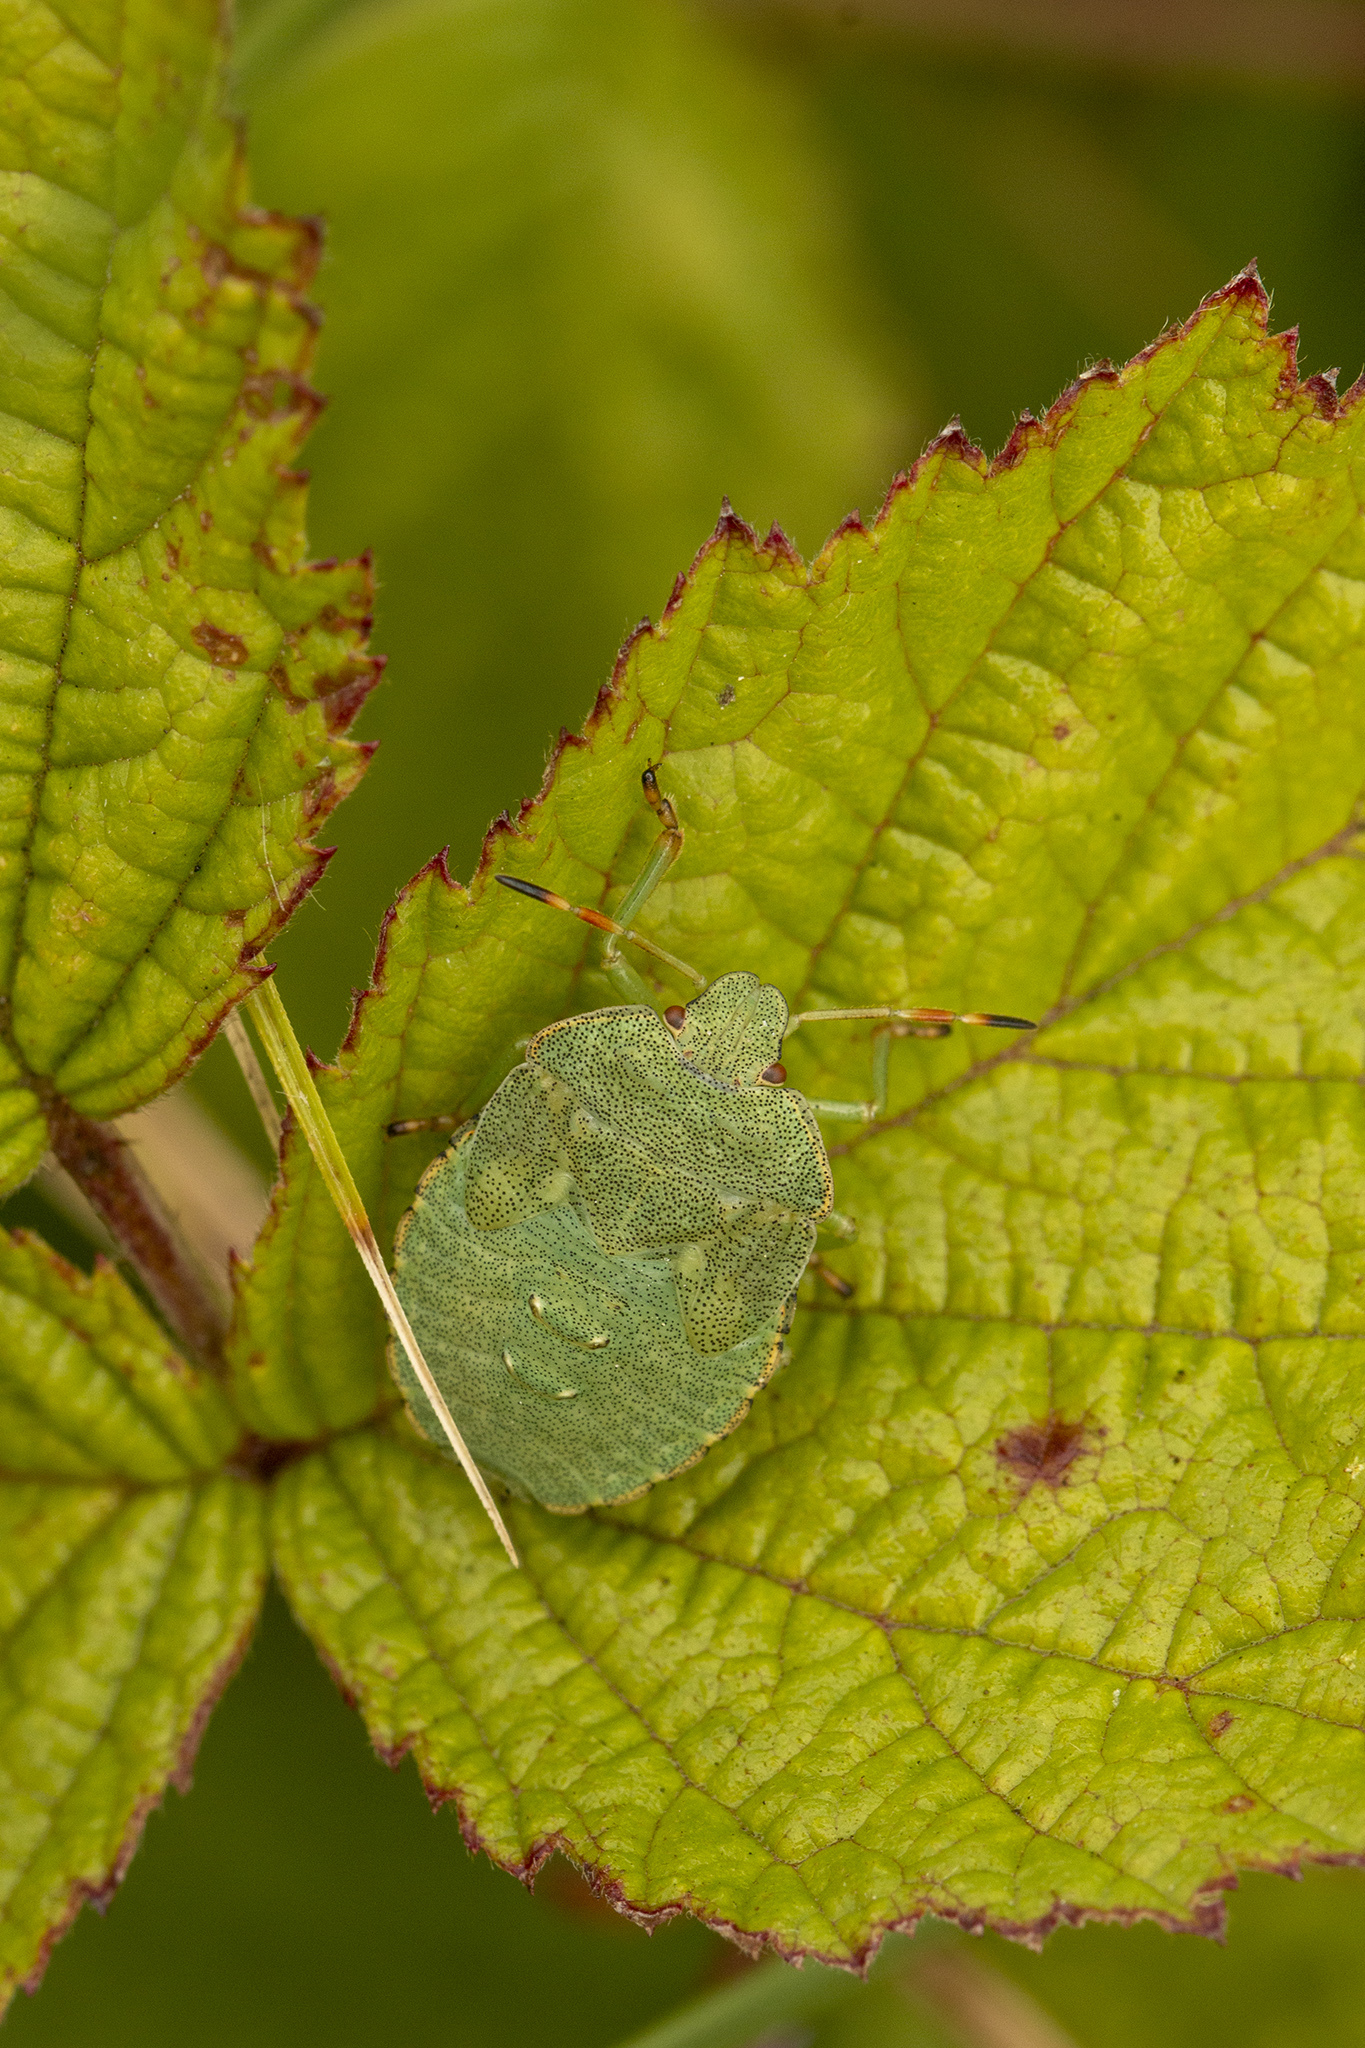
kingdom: Animalia
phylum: Arthropoda
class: Insecta
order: Hemiptera
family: Pentatomidae
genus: Palomena
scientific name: Palomena prasina
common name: Green shieldbug
